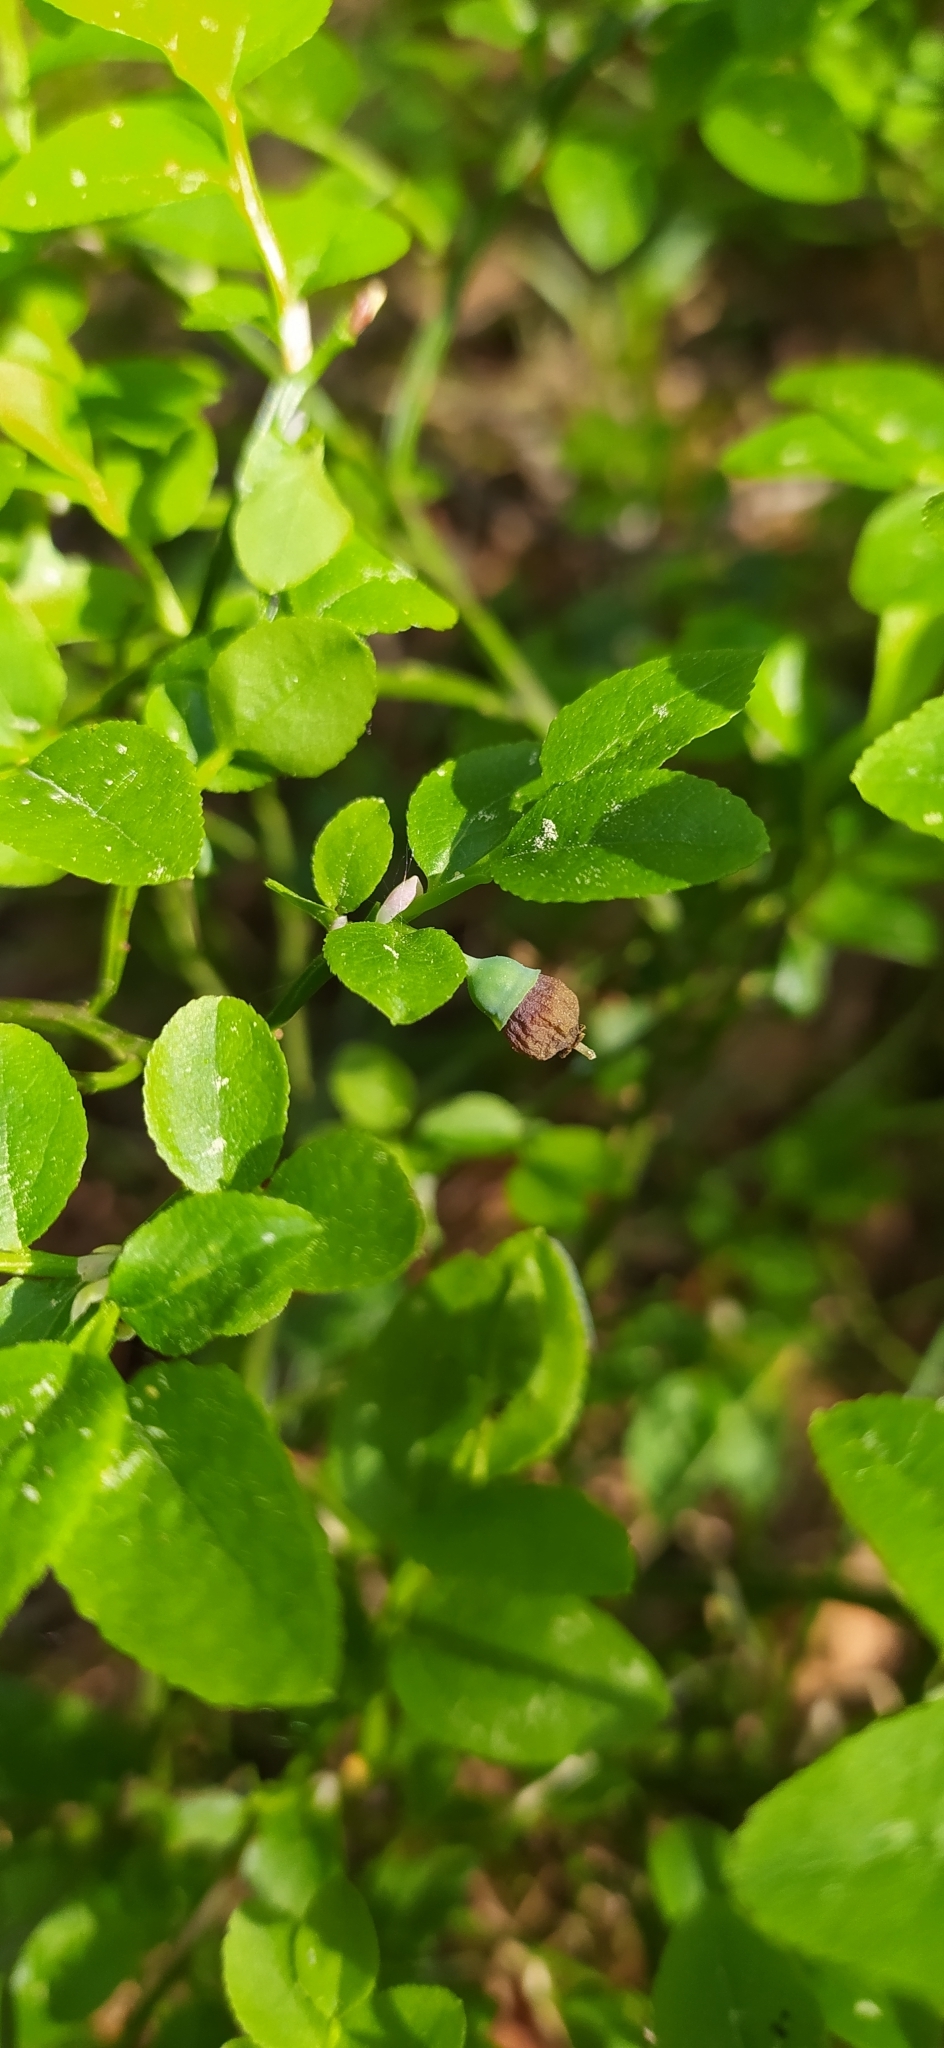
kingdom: Plantae
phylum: Tracheophyta
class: Magnoliopsida
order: Ericales
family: Ericaceae
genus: Vaccinium
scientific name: Vaccinium myrtillus
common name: Bilberry
